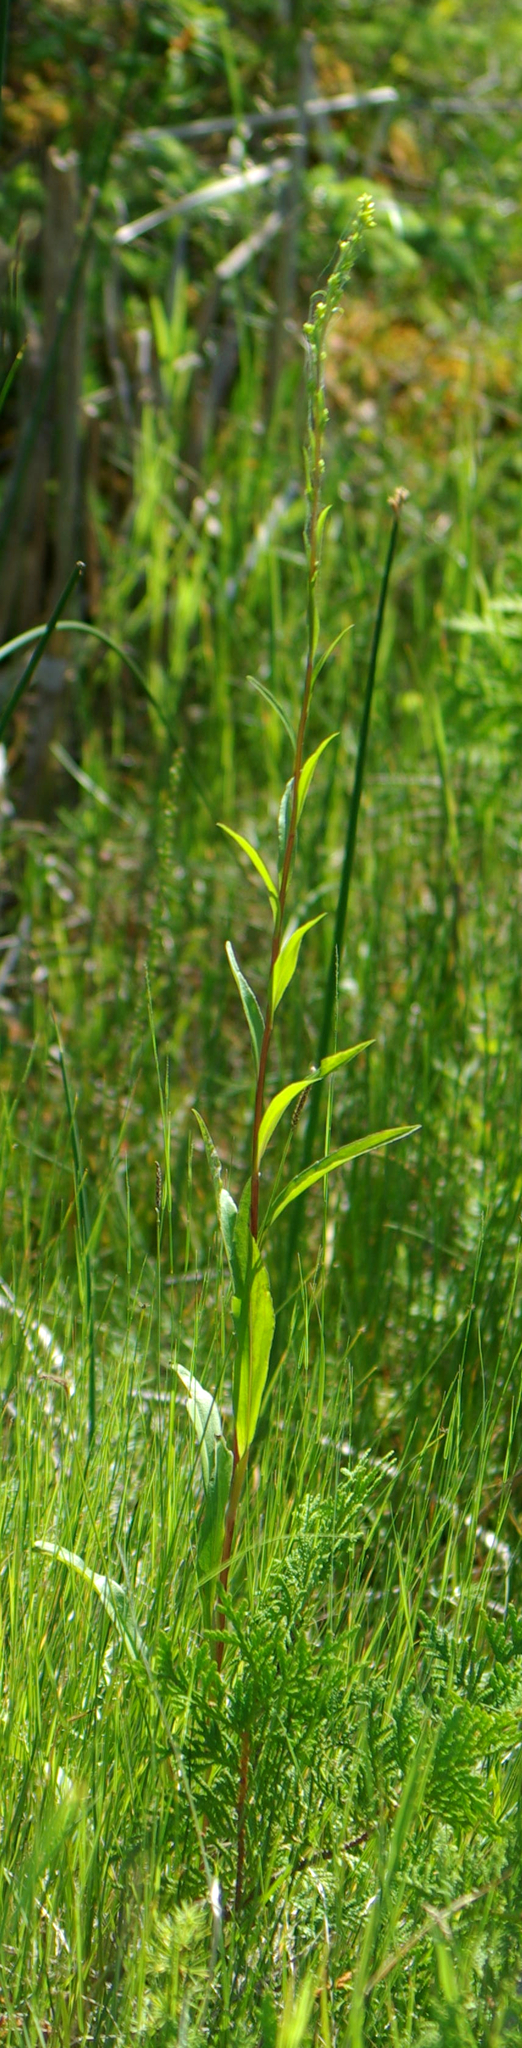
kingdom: Plantae
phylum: Tracheophyta
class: Magnoliopsida
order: Asterales
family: Asteraceae
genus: Solidago
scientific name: Solidago uliginosa
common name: Bog goldenrod
